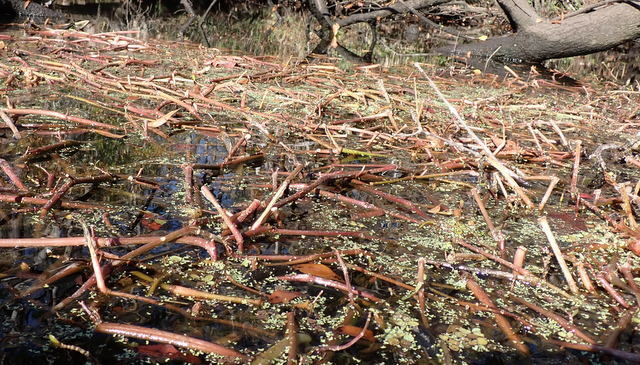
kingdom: Plantae
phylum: Tracheophyta
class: Magnoliopsida
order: Caryophyllales
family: Amaranthaceae
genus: Alternanthera
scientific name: Alternanthera philoxeroides
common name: Alligatorweed
